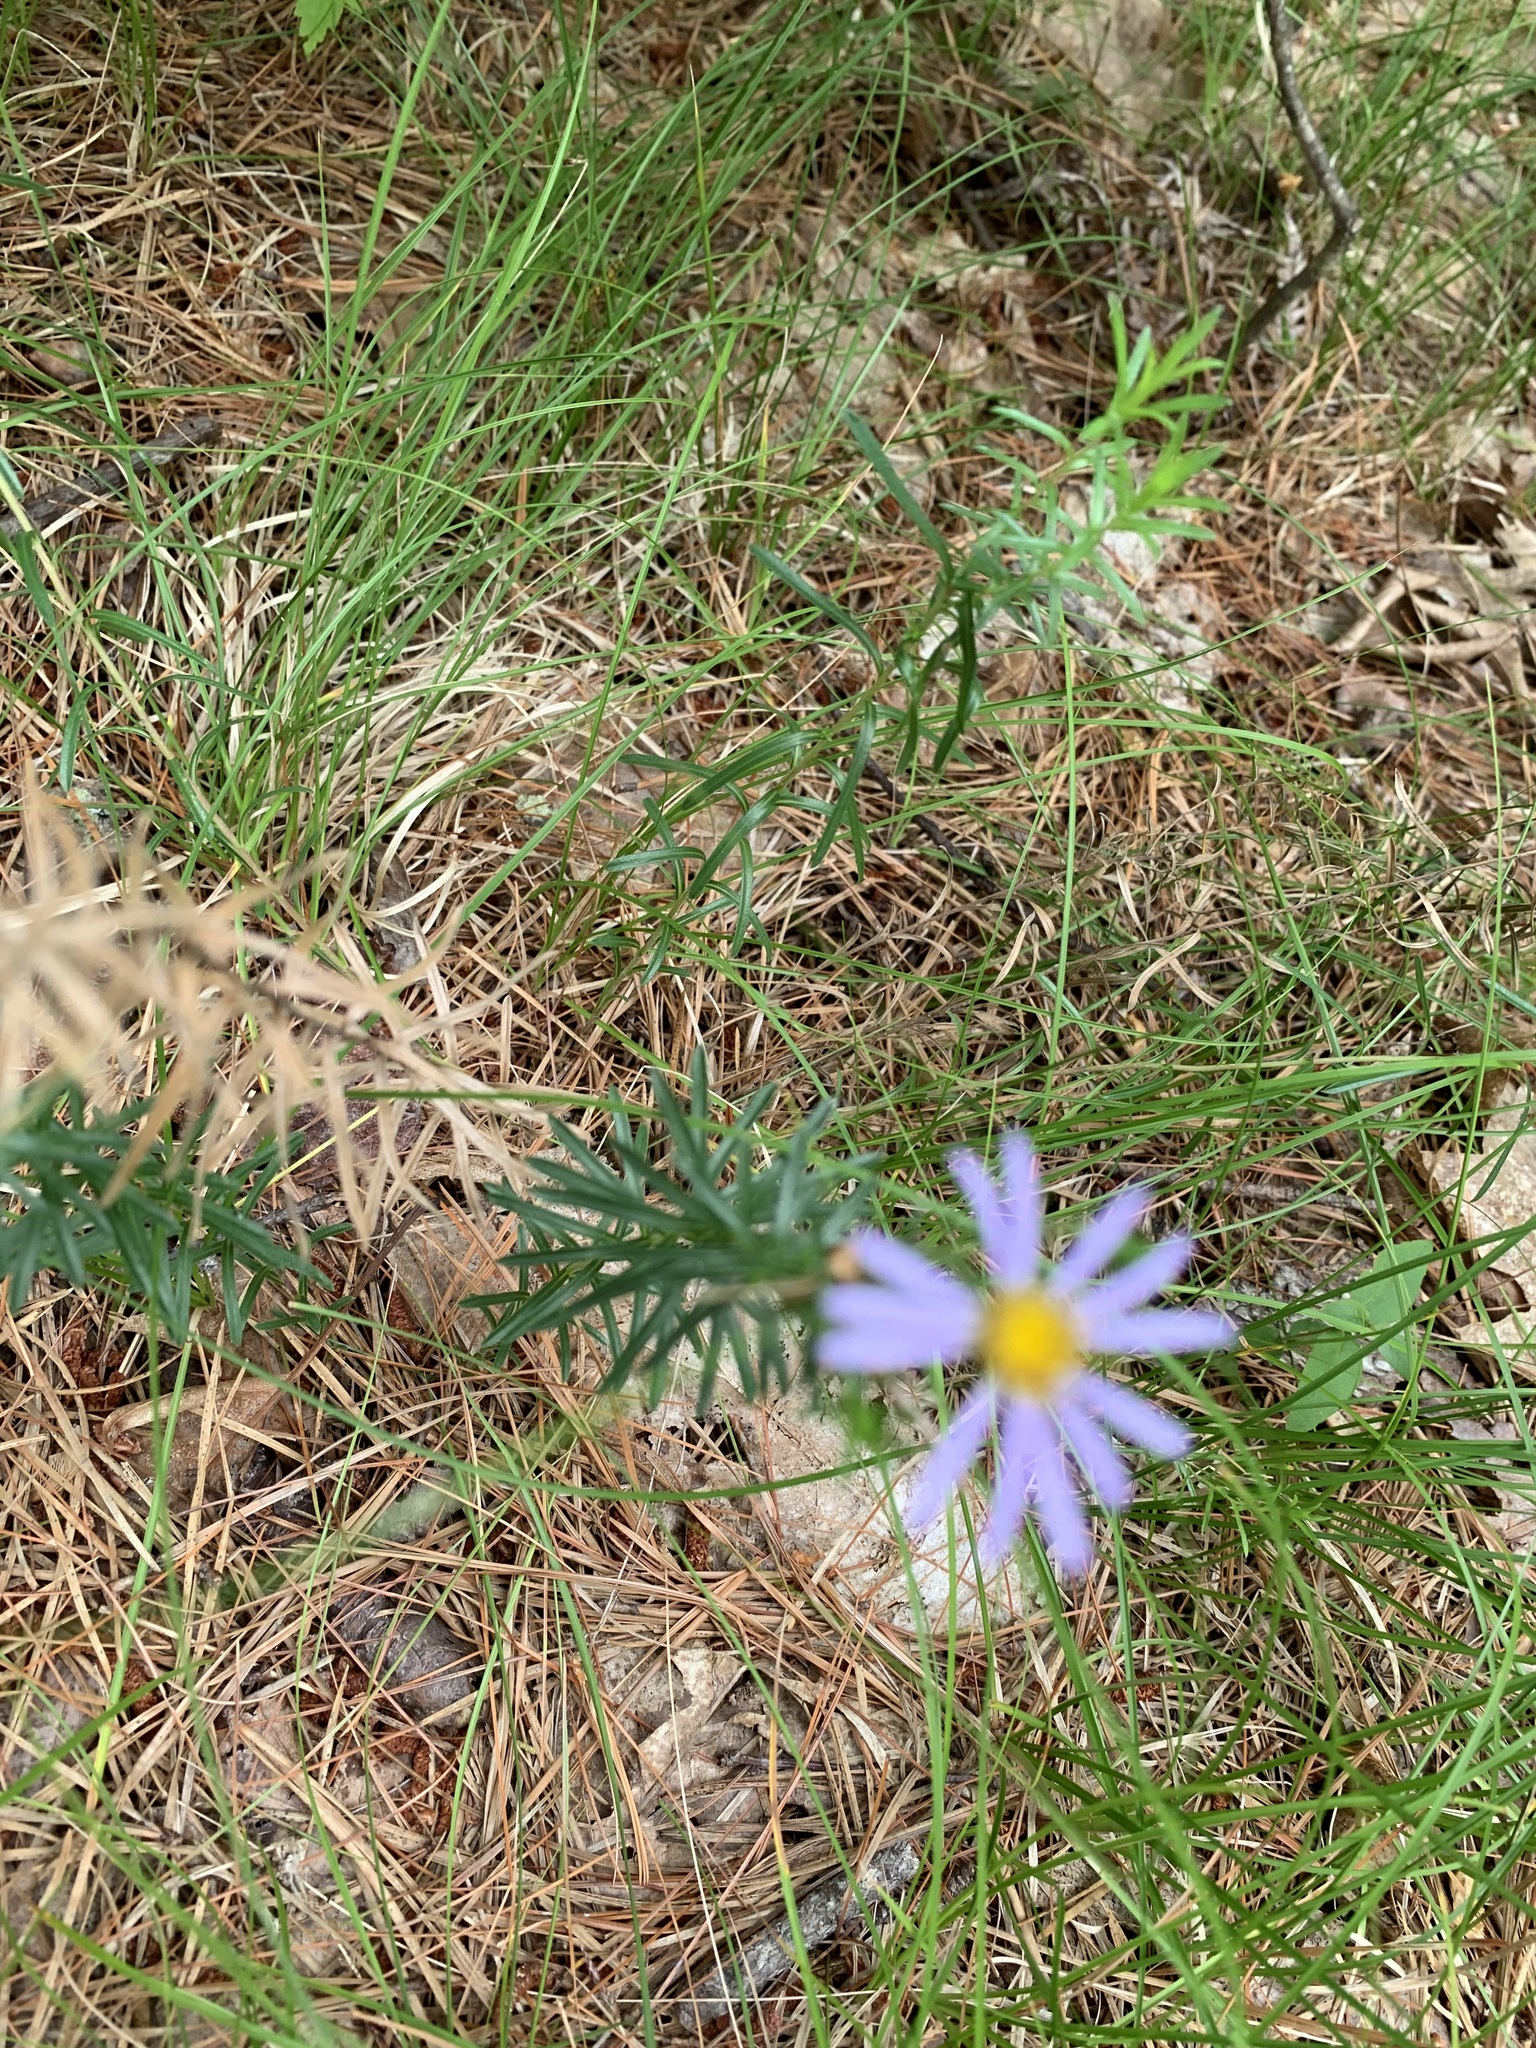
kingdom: Plantae
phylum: Tracheophyta
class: Magnoliopsida
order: Asterales
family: Asteraceae
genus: Ionactis
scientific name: Ionactis linariifolia
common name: Flax-leaf aster
